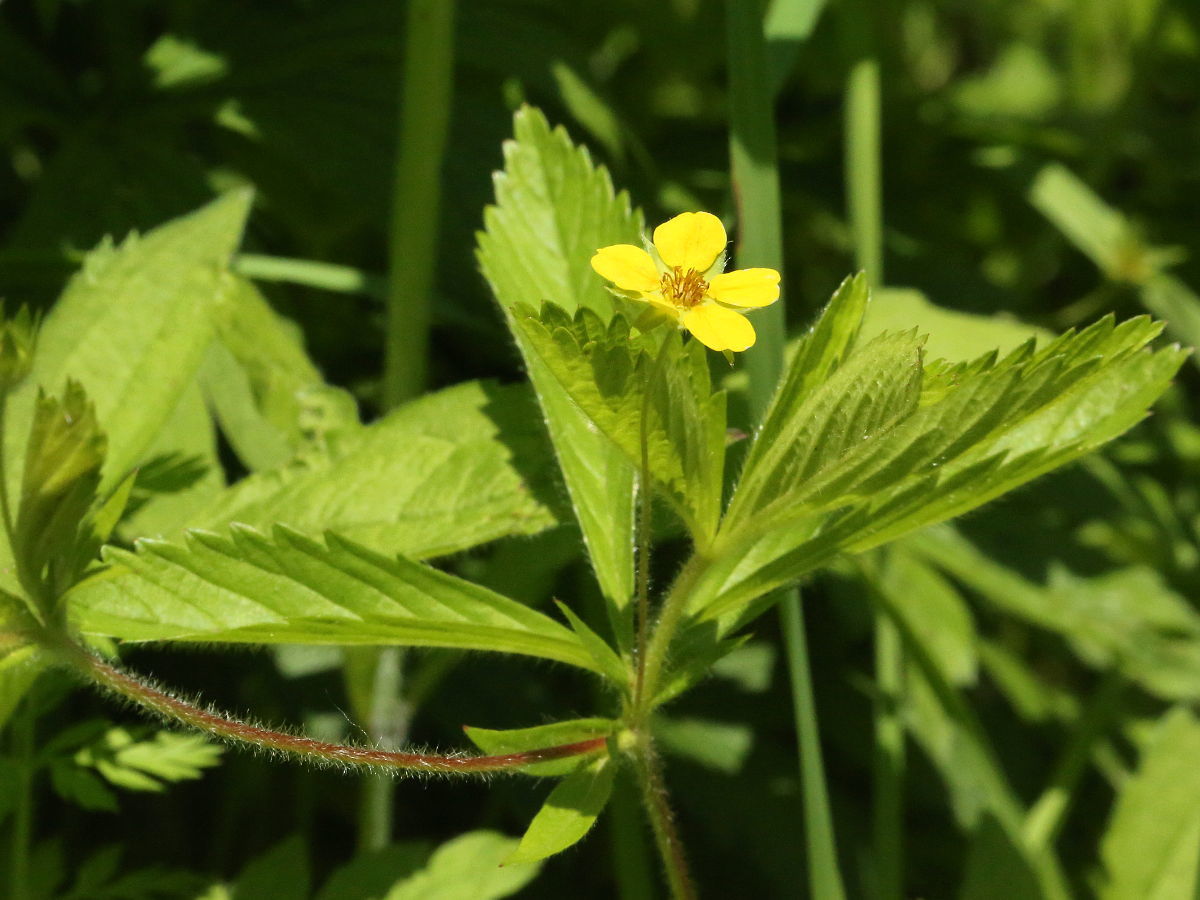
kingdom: Plantae
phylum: Tracheophyta
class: Magnoliopsida
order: Rosales
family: Rosaceae
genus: Potentilla
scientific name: Potentilla indica
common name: Yellow-flowered strawberry
